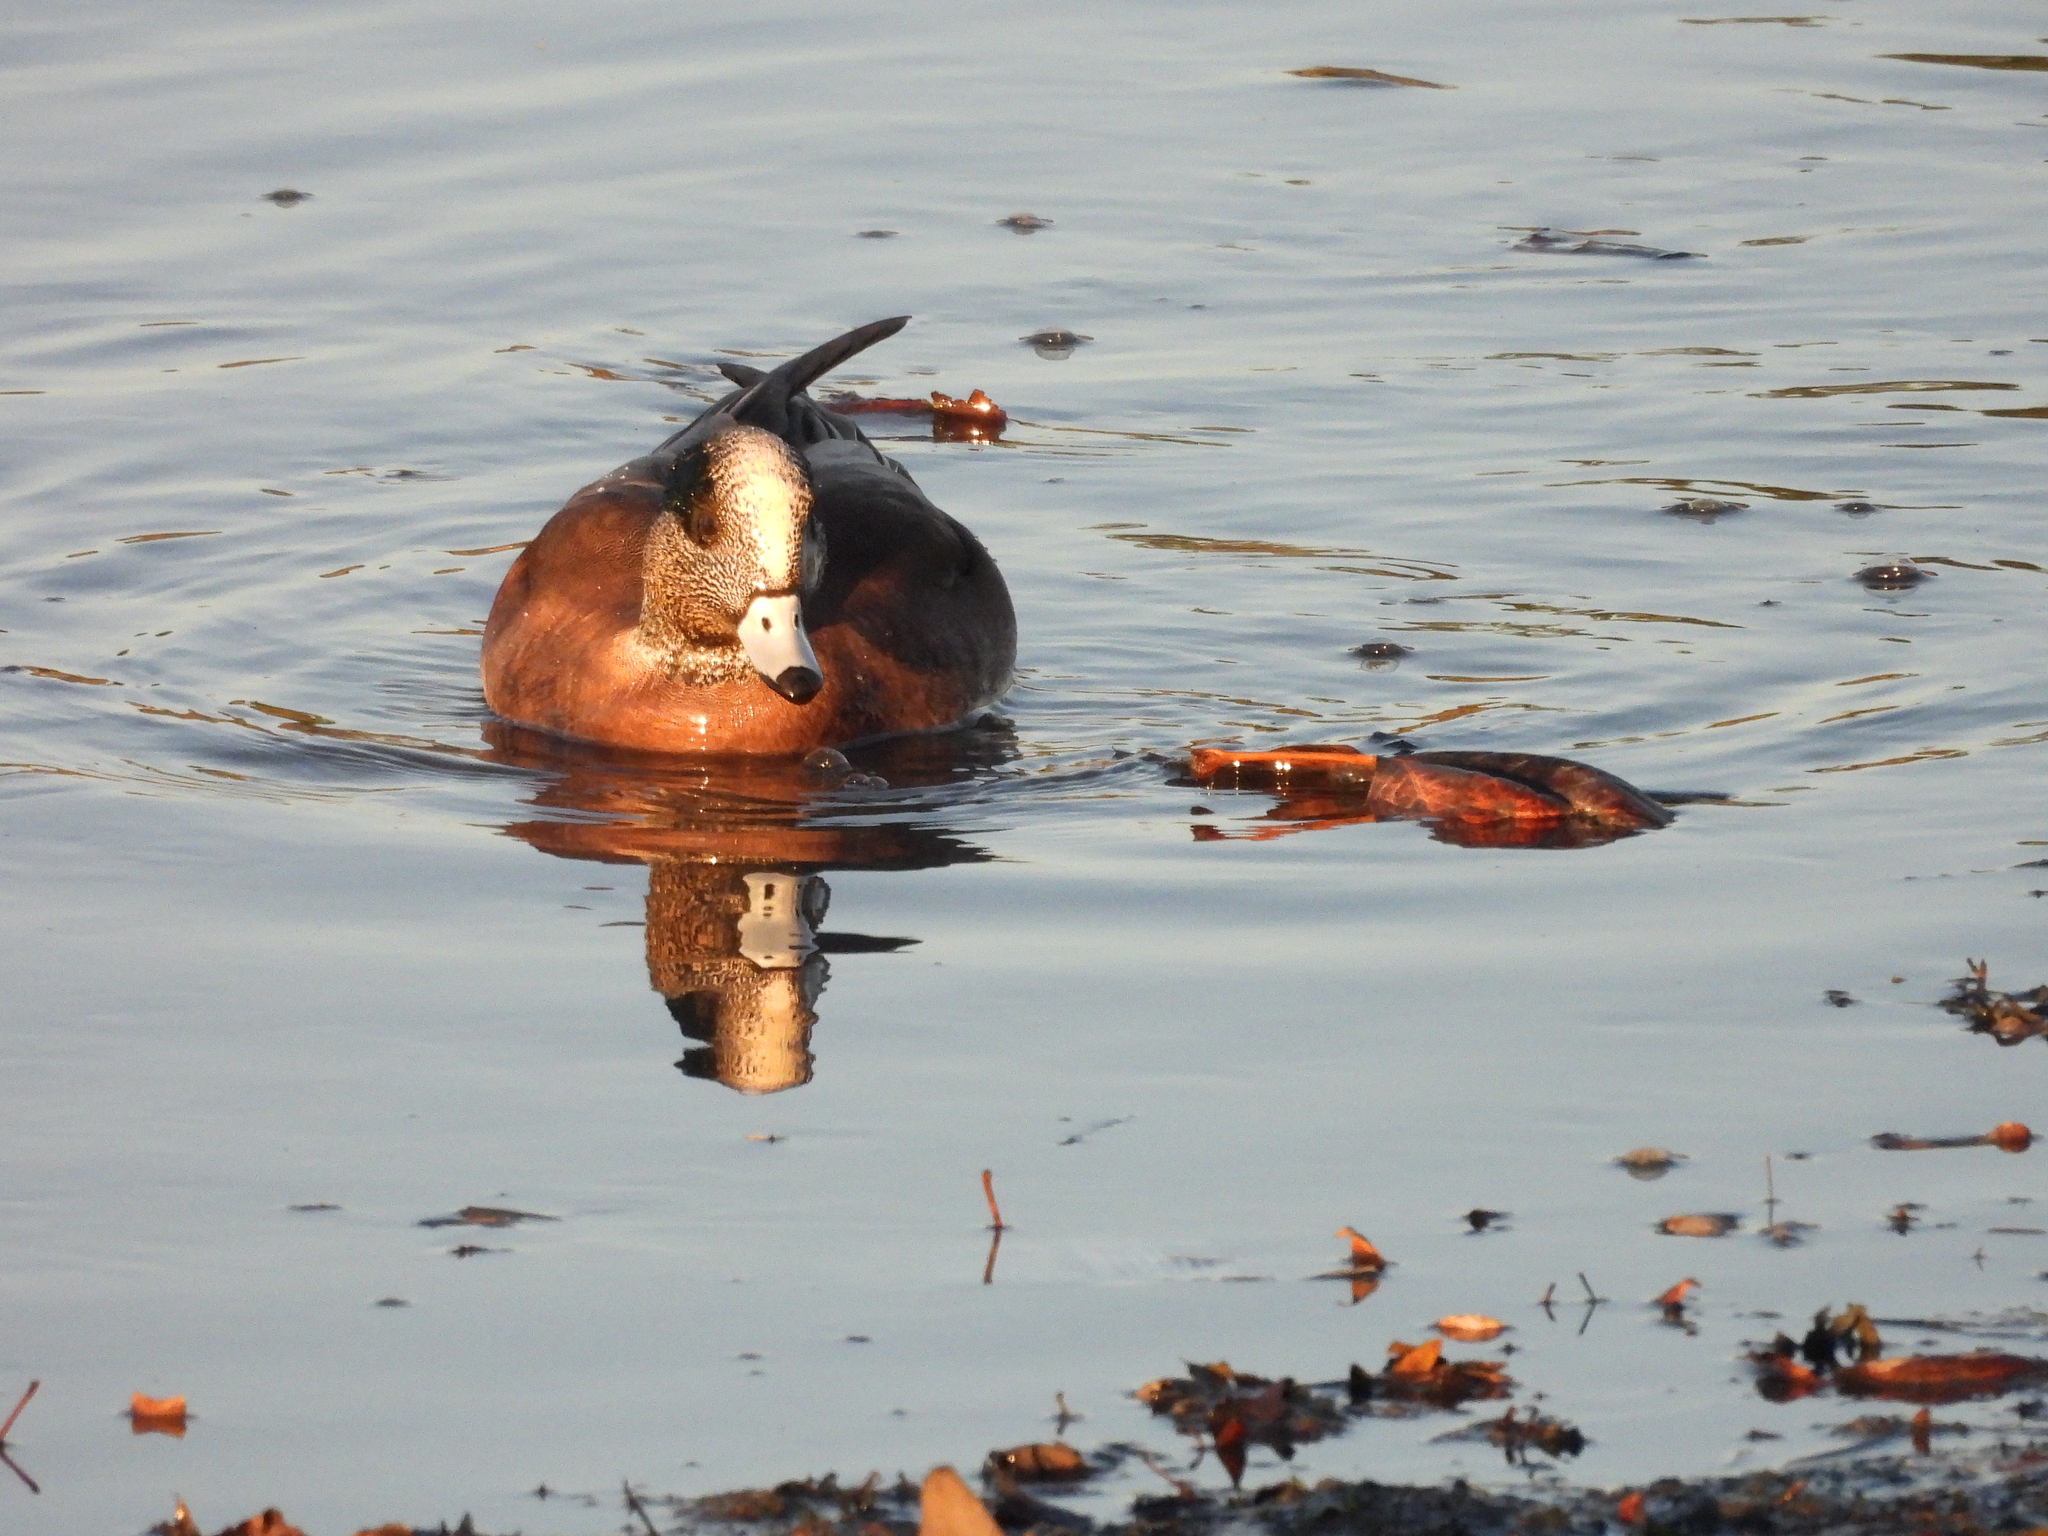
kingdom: Animalia
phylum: Chordata
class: Aves
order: Anseriformes
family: Anatidae
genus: Mareca
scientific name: Mareca americana
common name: American wigeon
